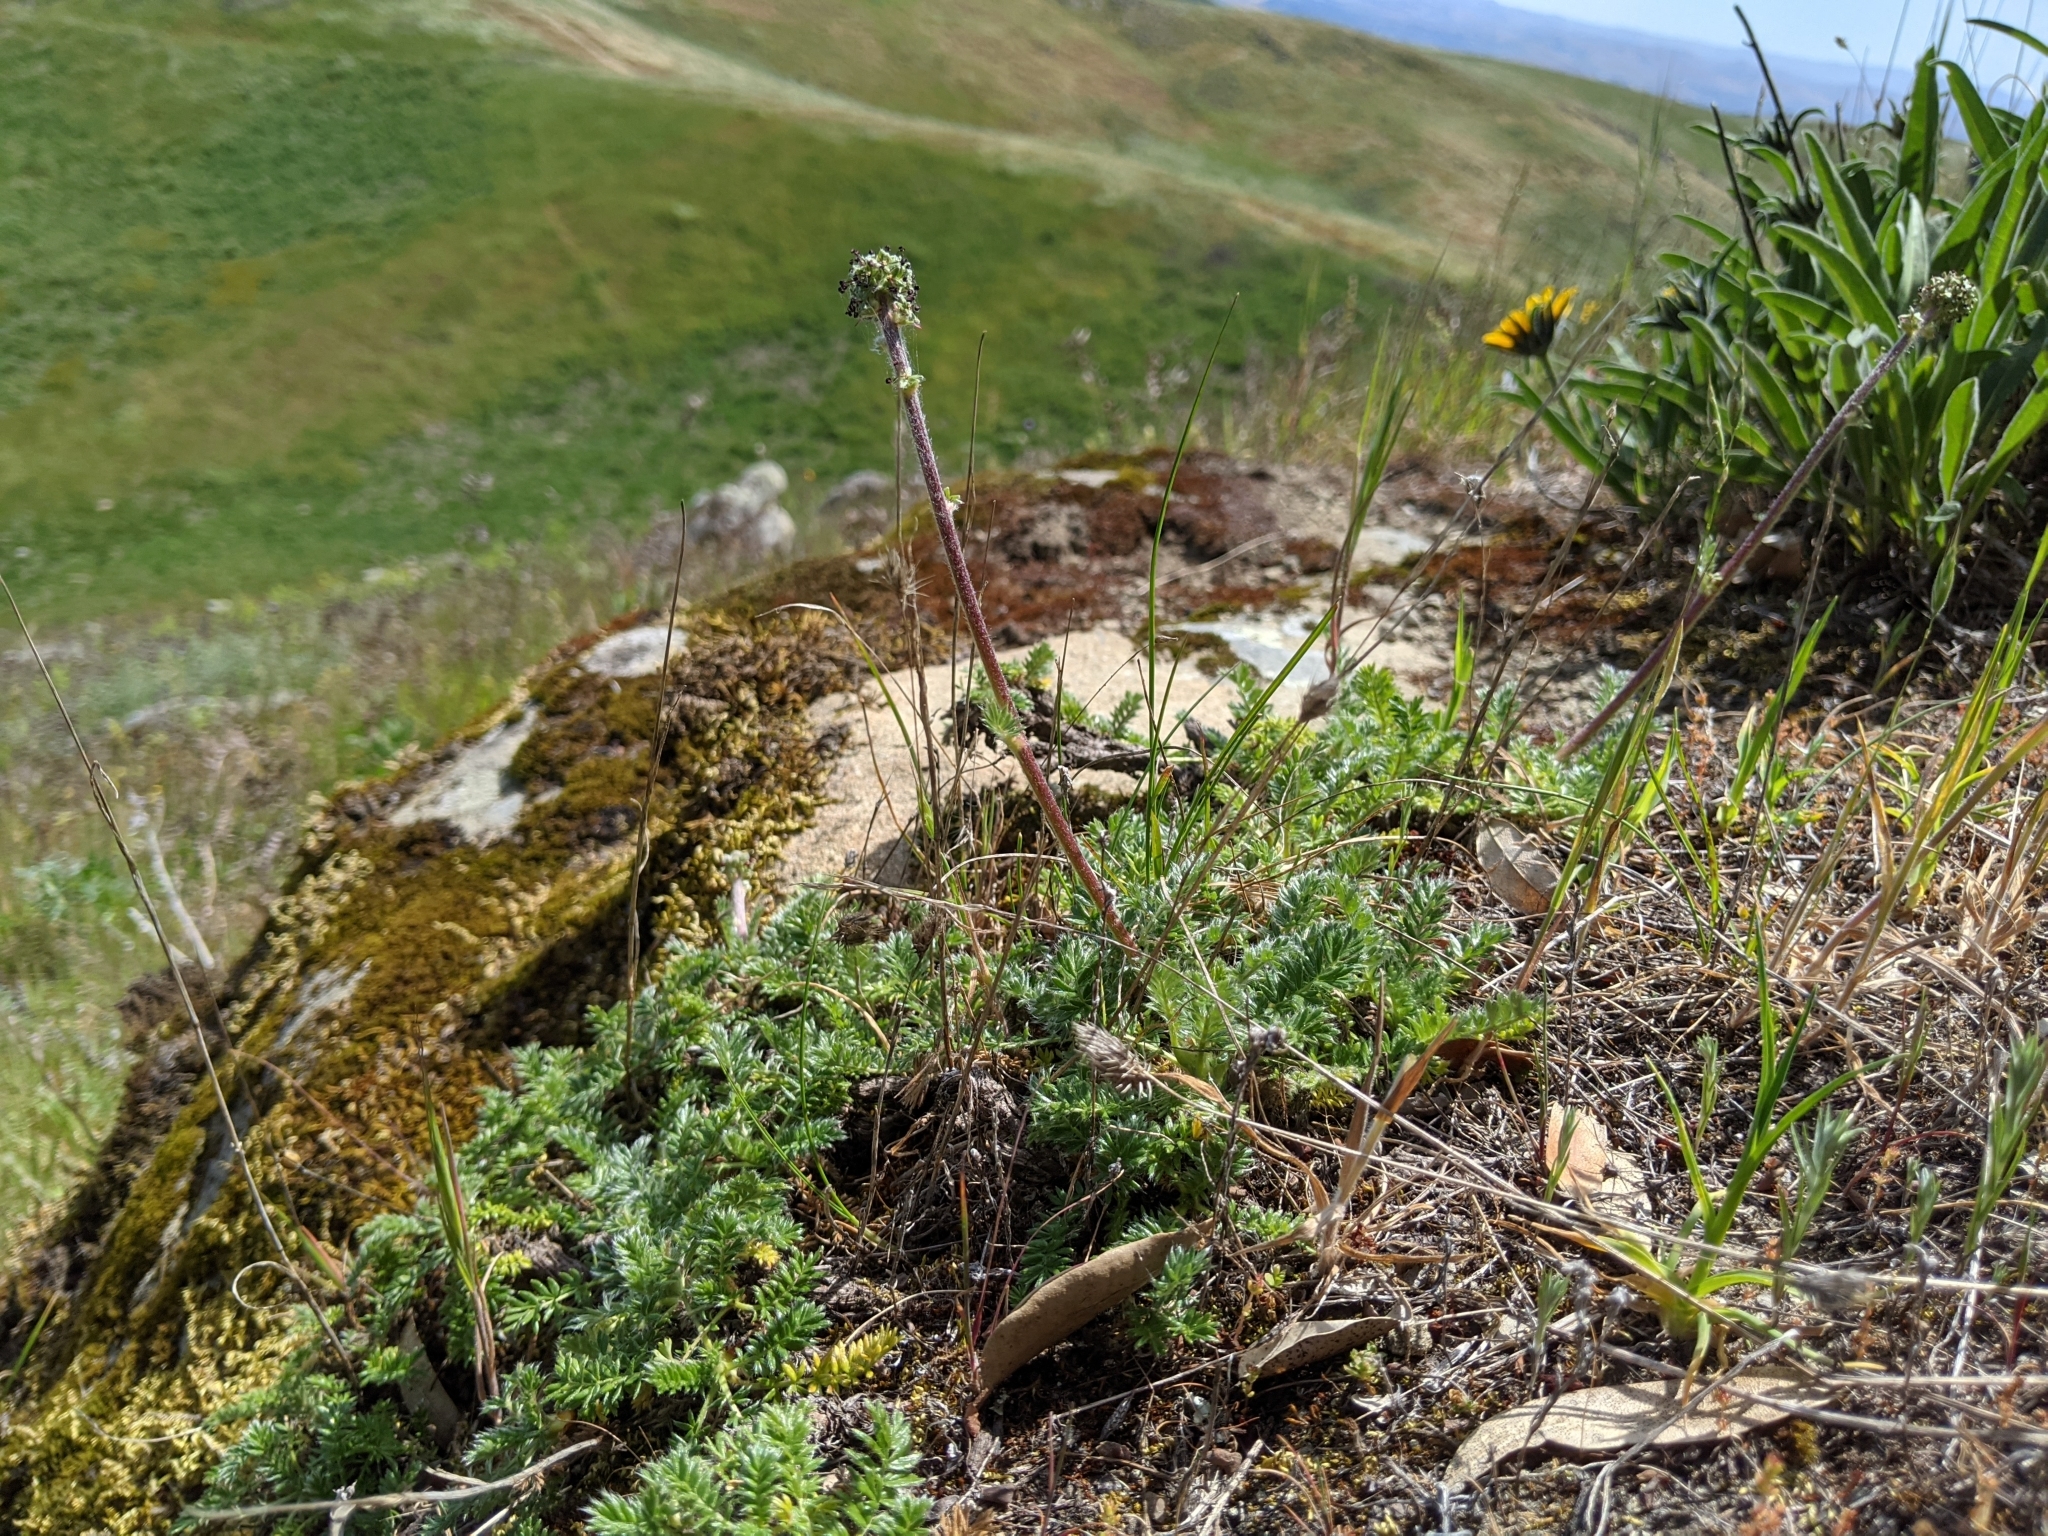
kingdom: Plantae
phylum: Tracheophyta
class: Magnoliopsida
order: Rosales
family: Rosaceae
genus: Acaena
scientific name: Acaena pinnatifida
